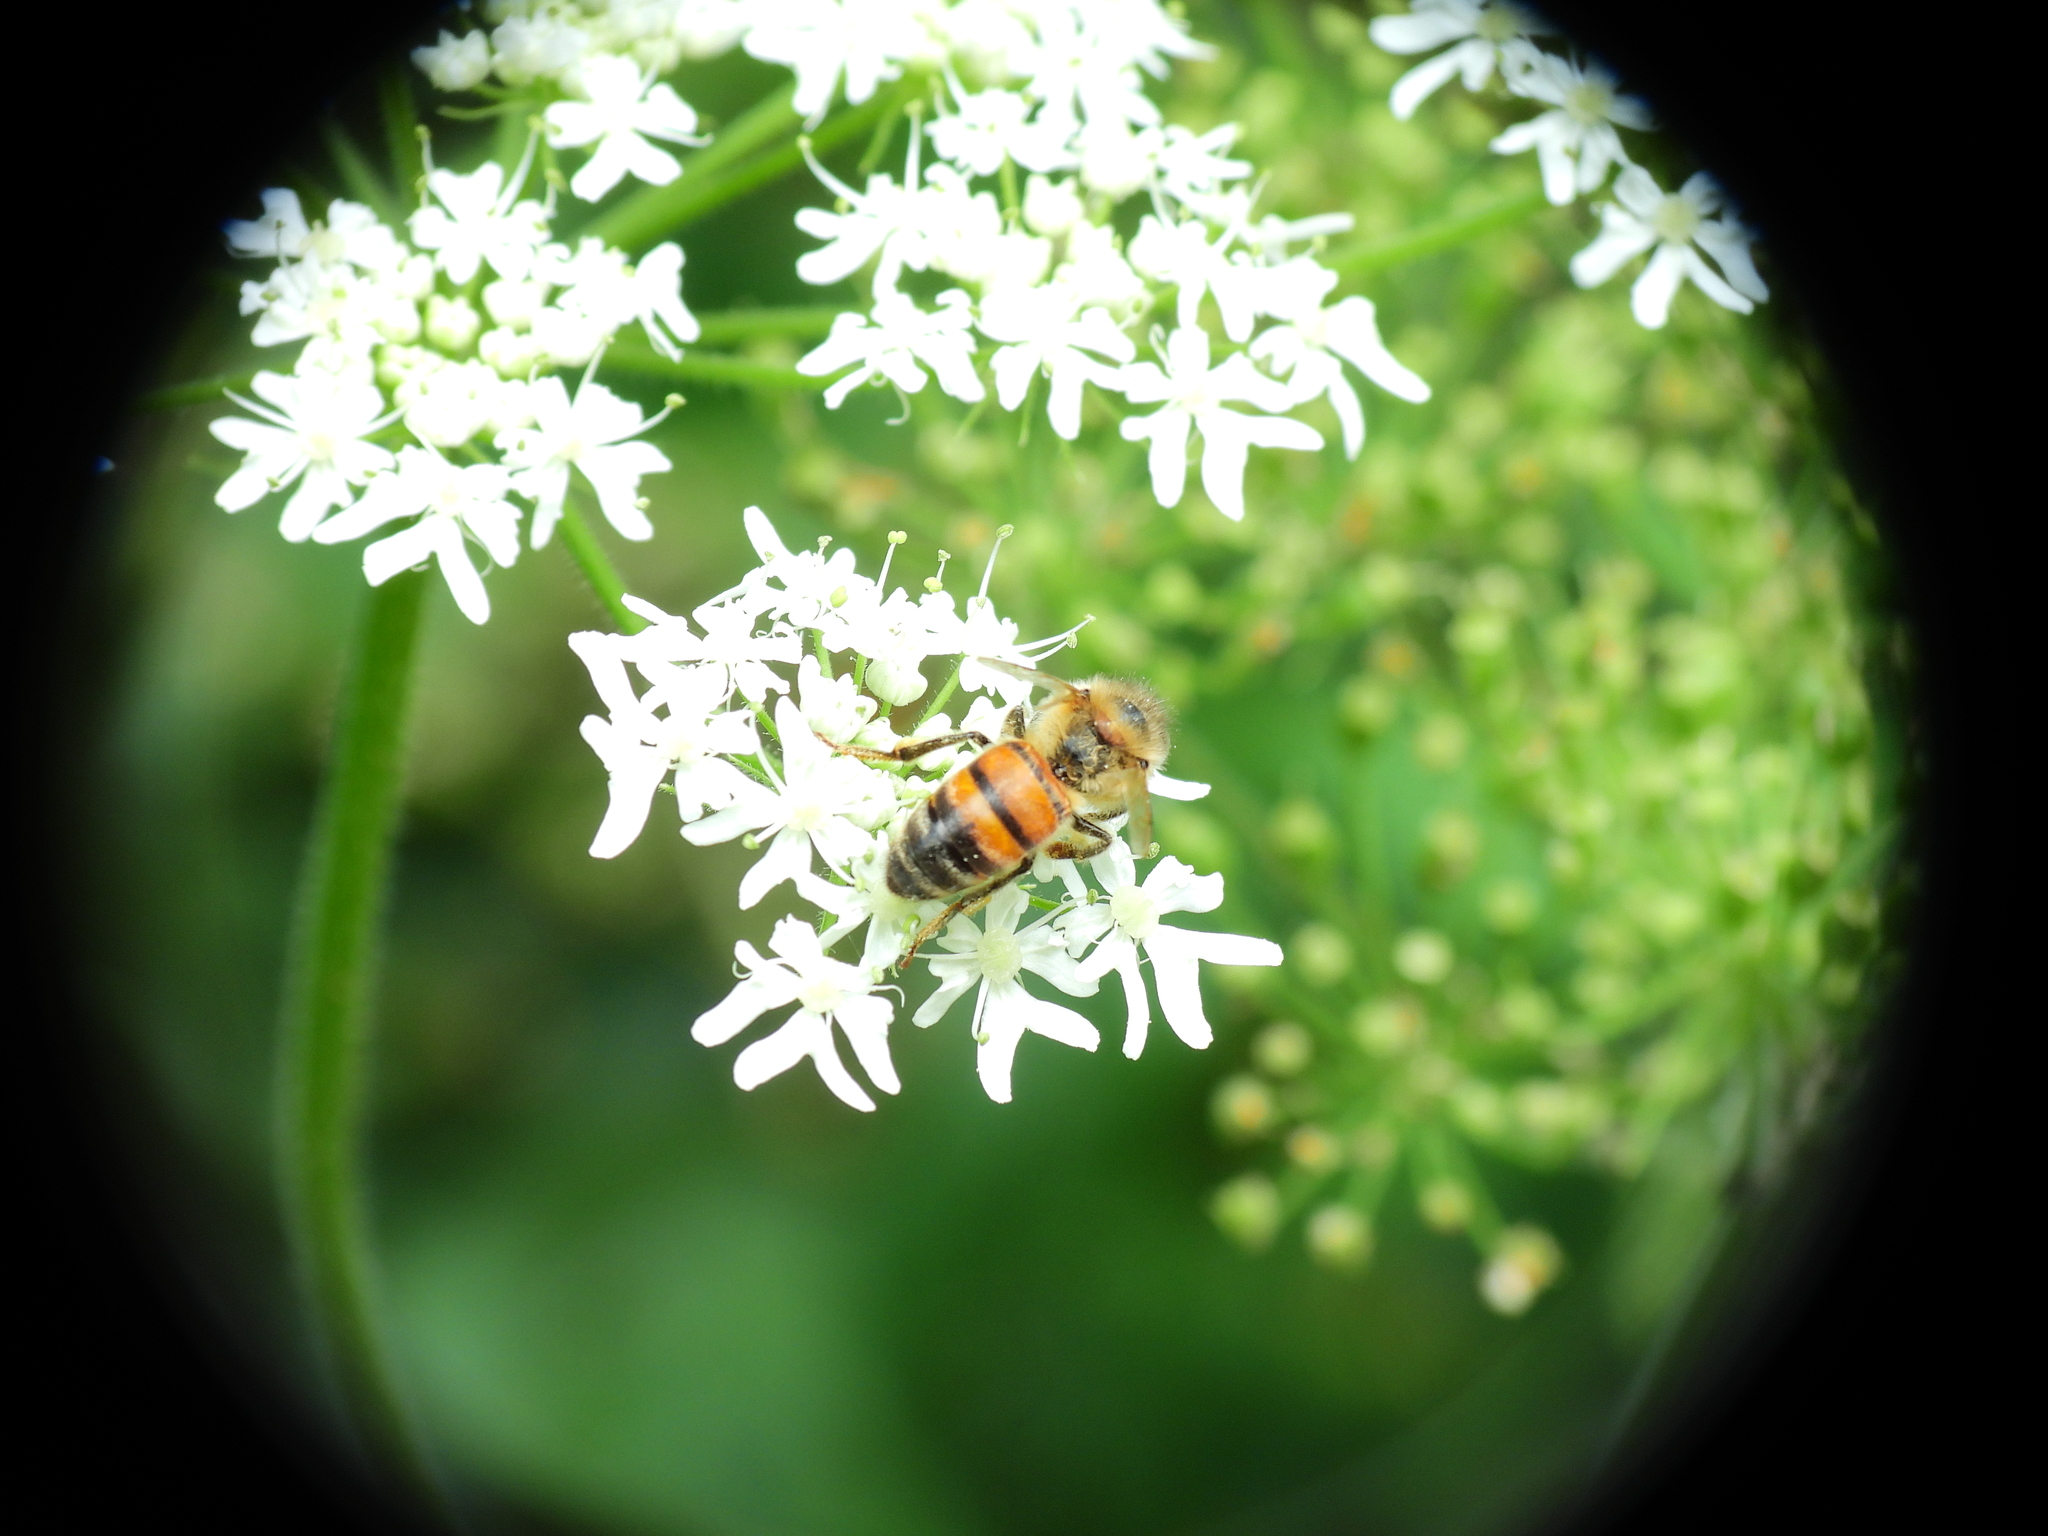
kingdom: Animalia
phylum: Arthropoda
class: Insecta
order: Hymenoptera
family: Apidae
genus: Apis
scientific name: Apis mellifera
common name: Honey bee
